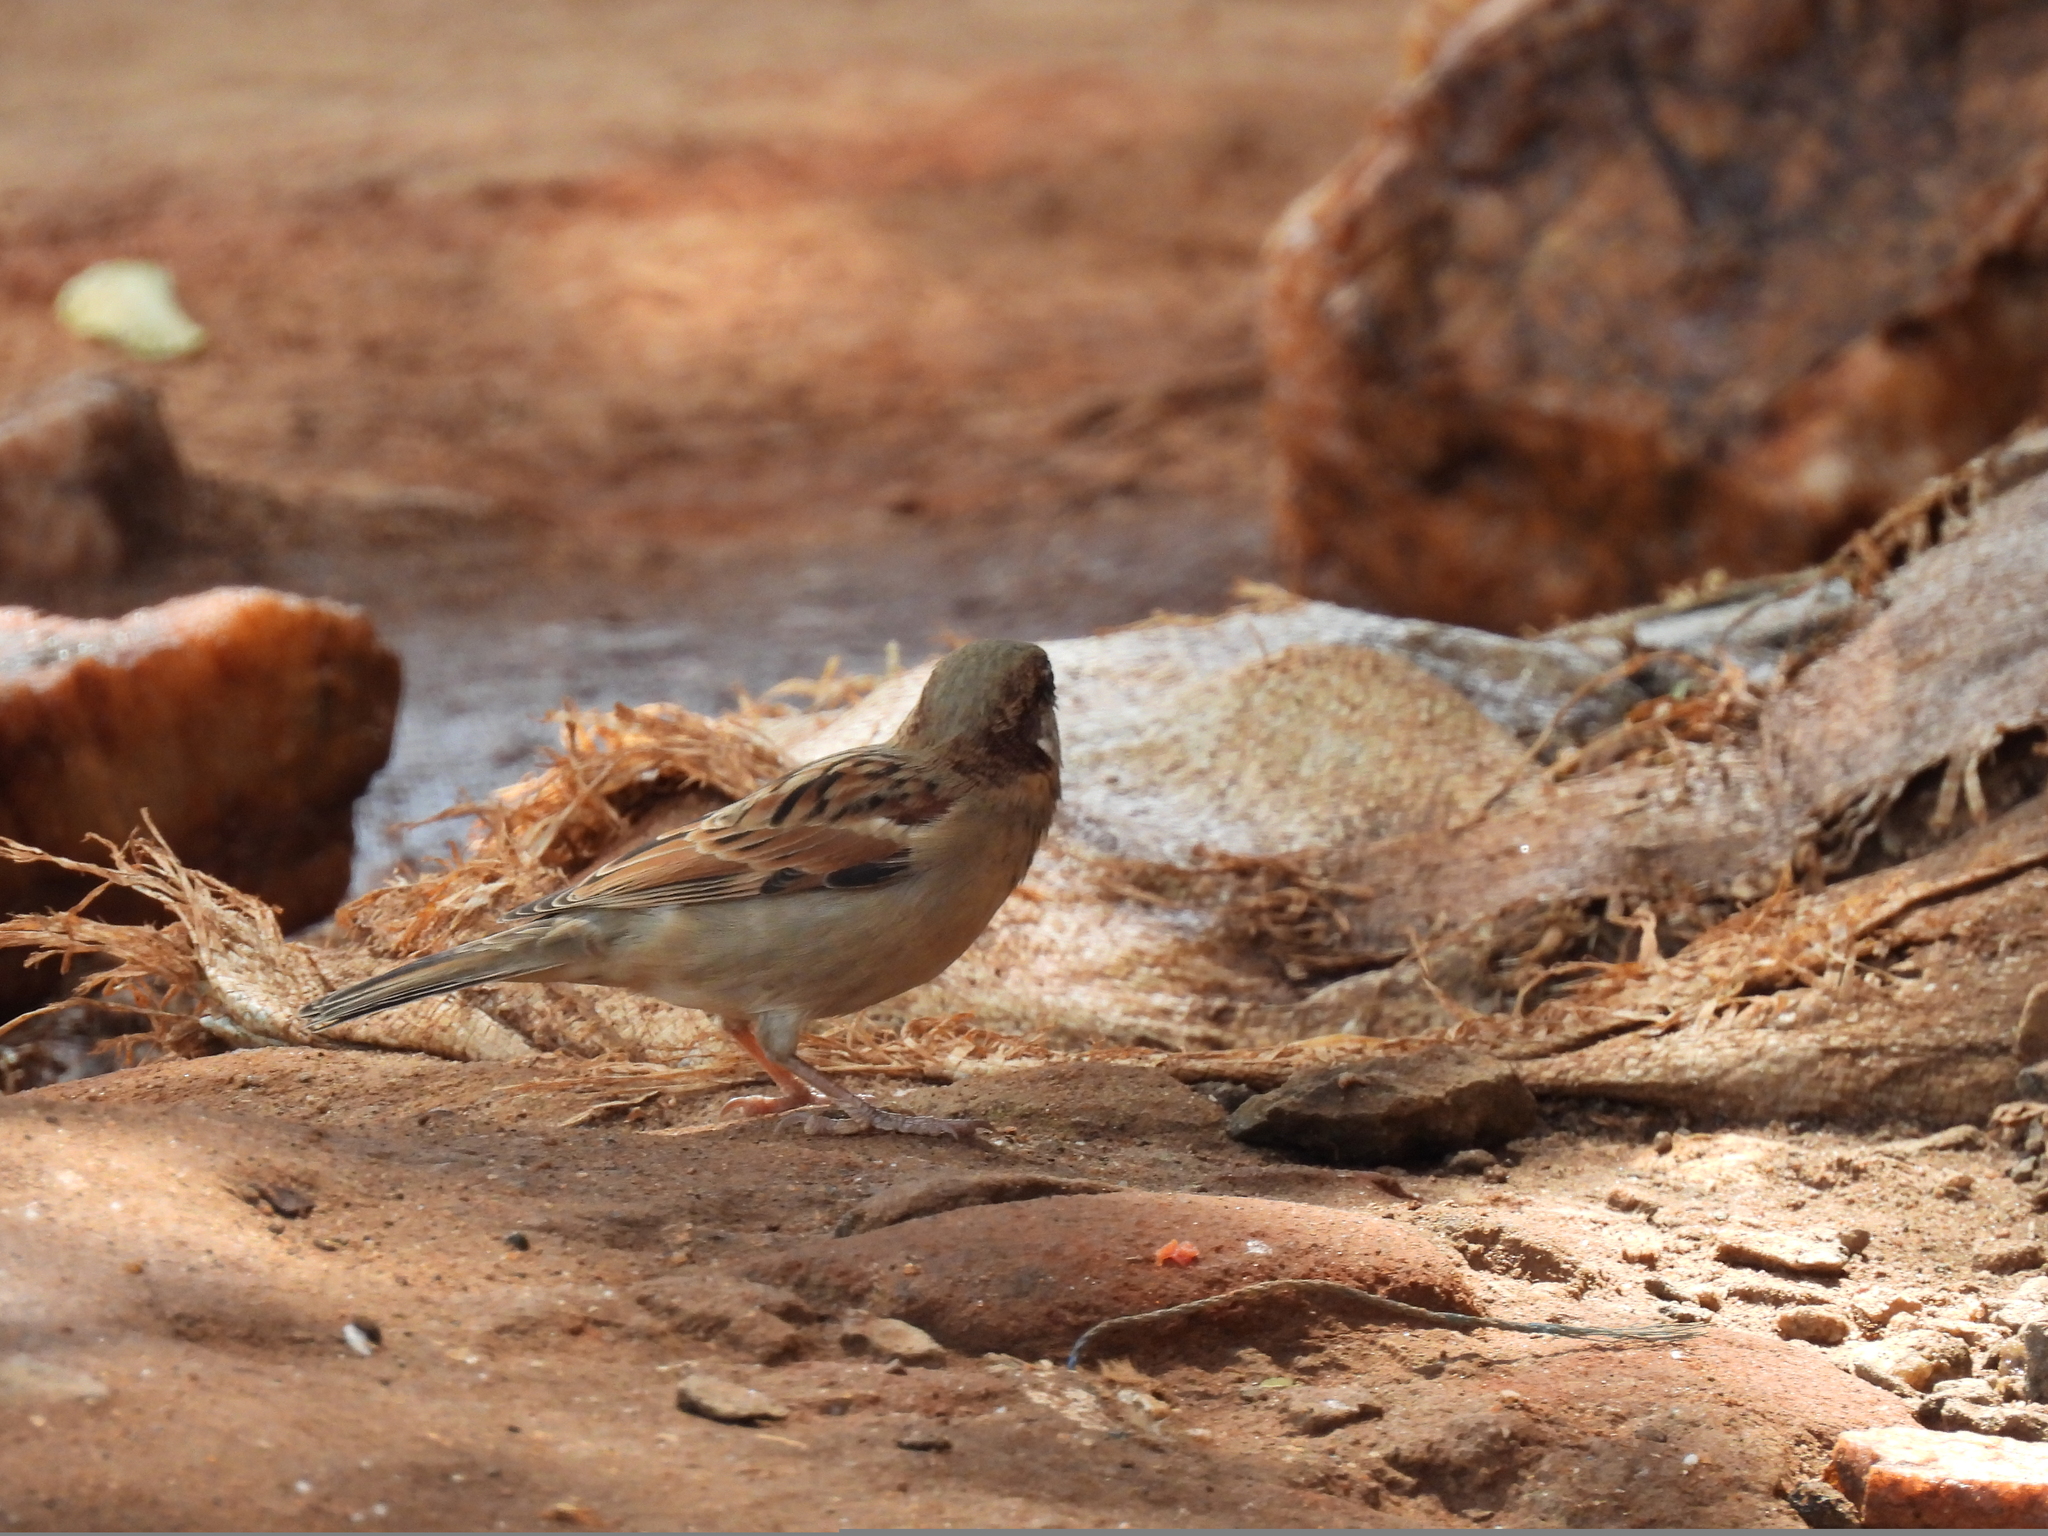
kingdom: Animalia
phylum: Chordata
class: Aves
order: Passeriformes
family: Passeridae
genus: Passer
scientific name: Passer domesticus
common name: House sparrow
